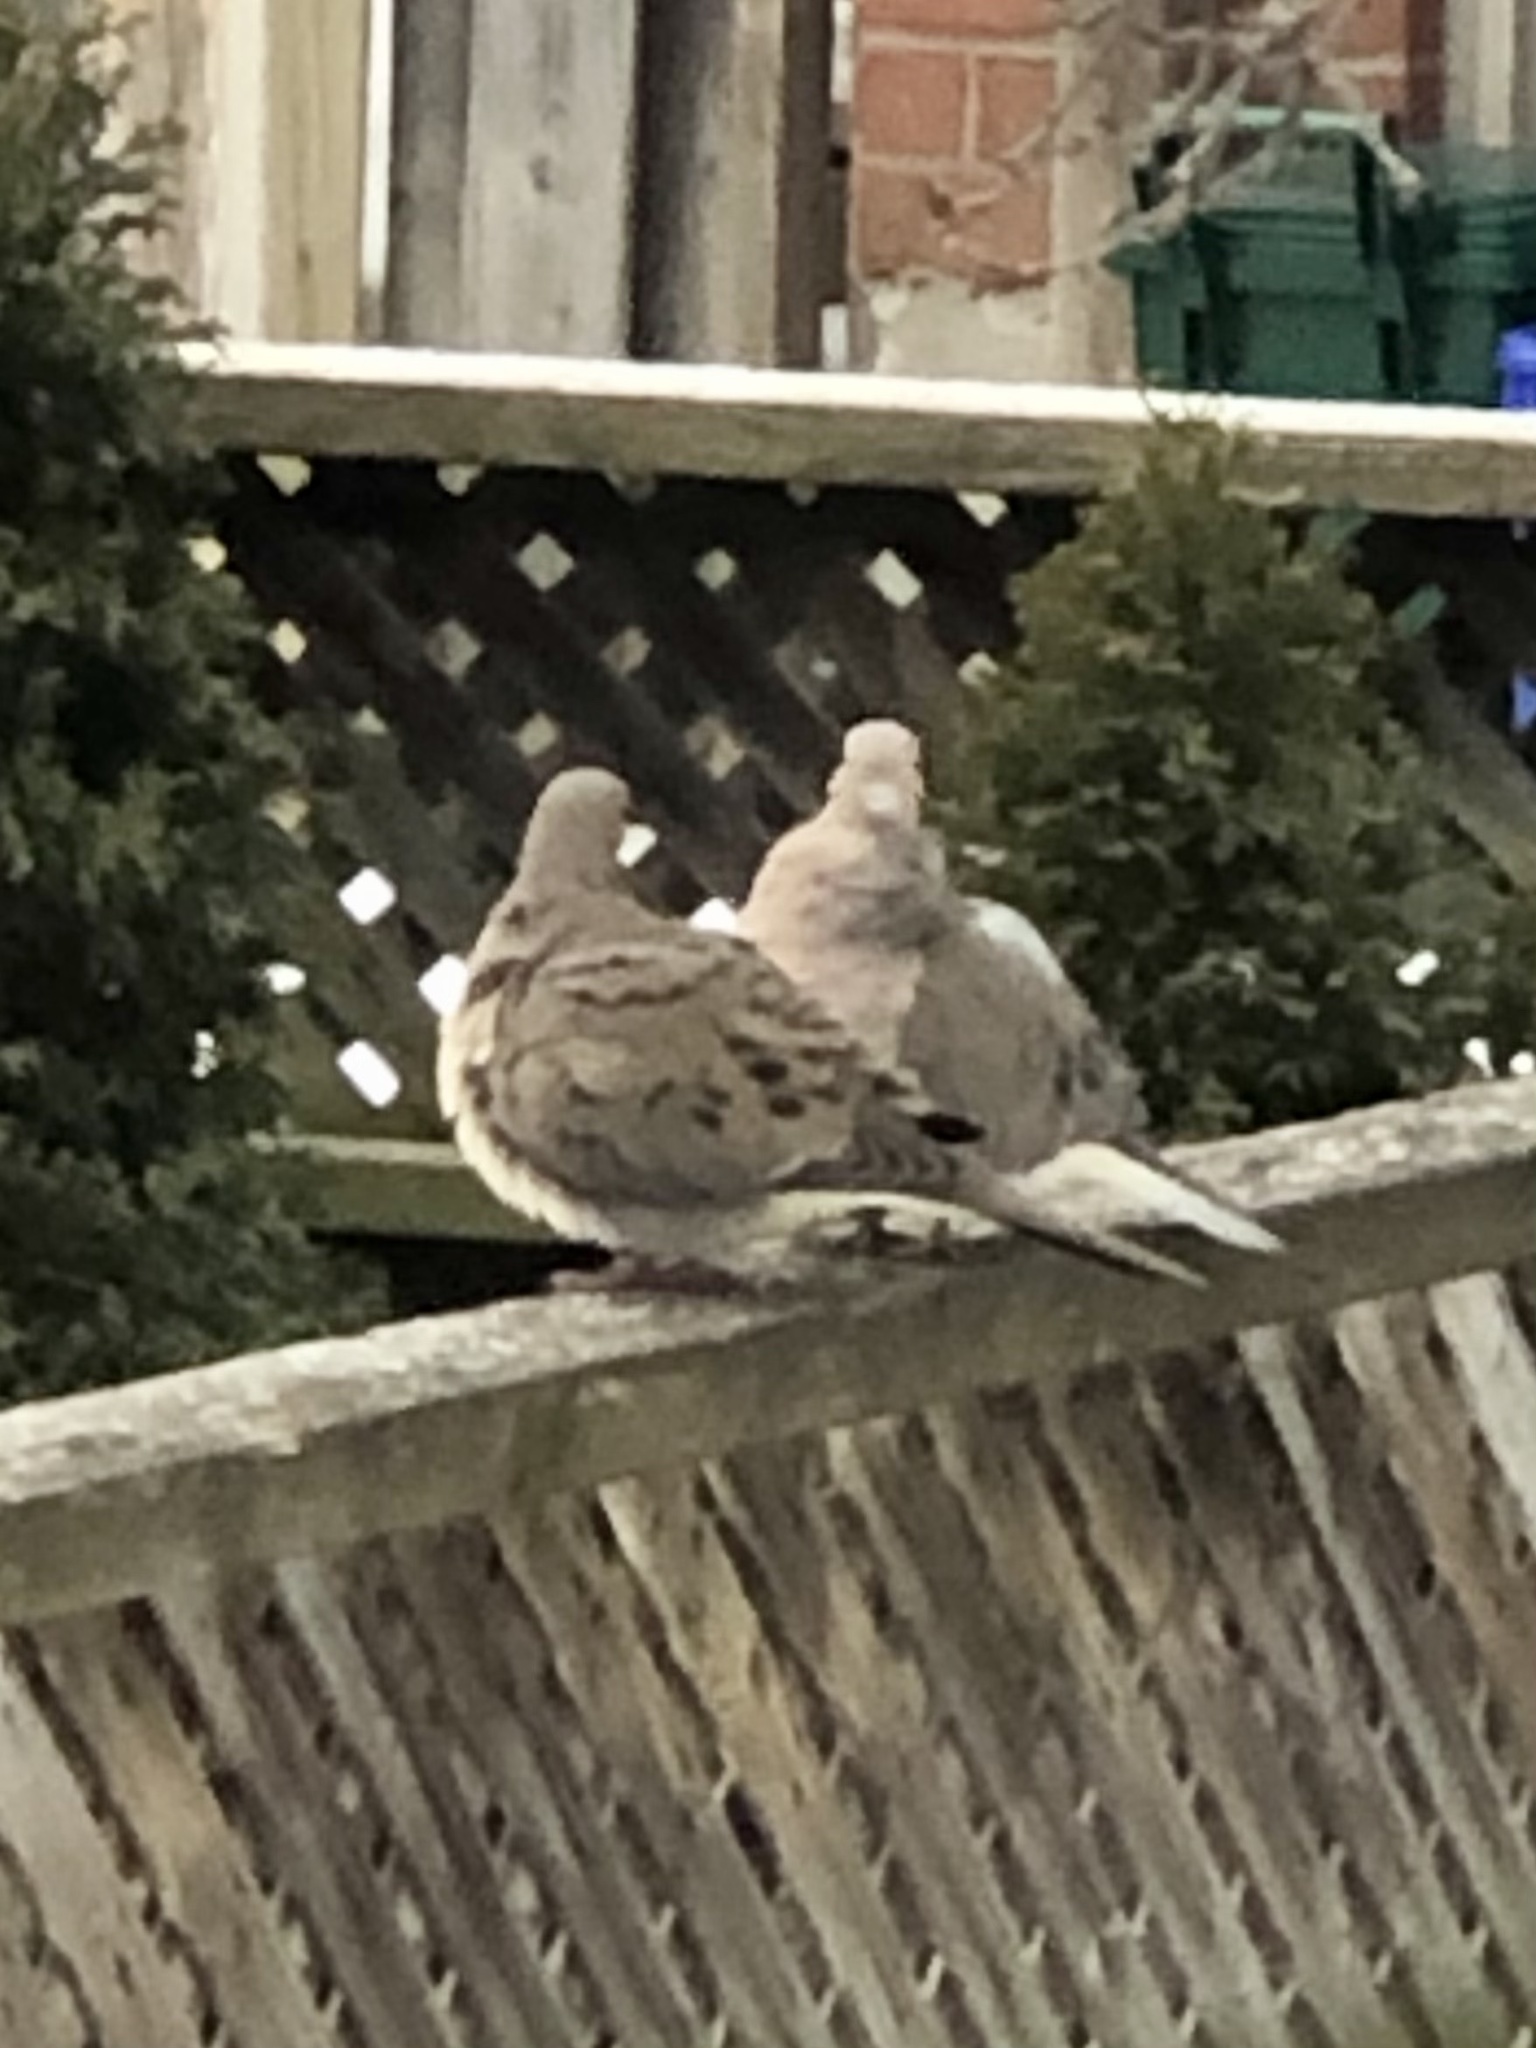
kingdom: Animalia
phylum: Chordata
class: Aves
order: Columbiformes
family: Columbidae
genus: Zenaida
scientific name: Zenaida macroura
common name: Mourning dove
